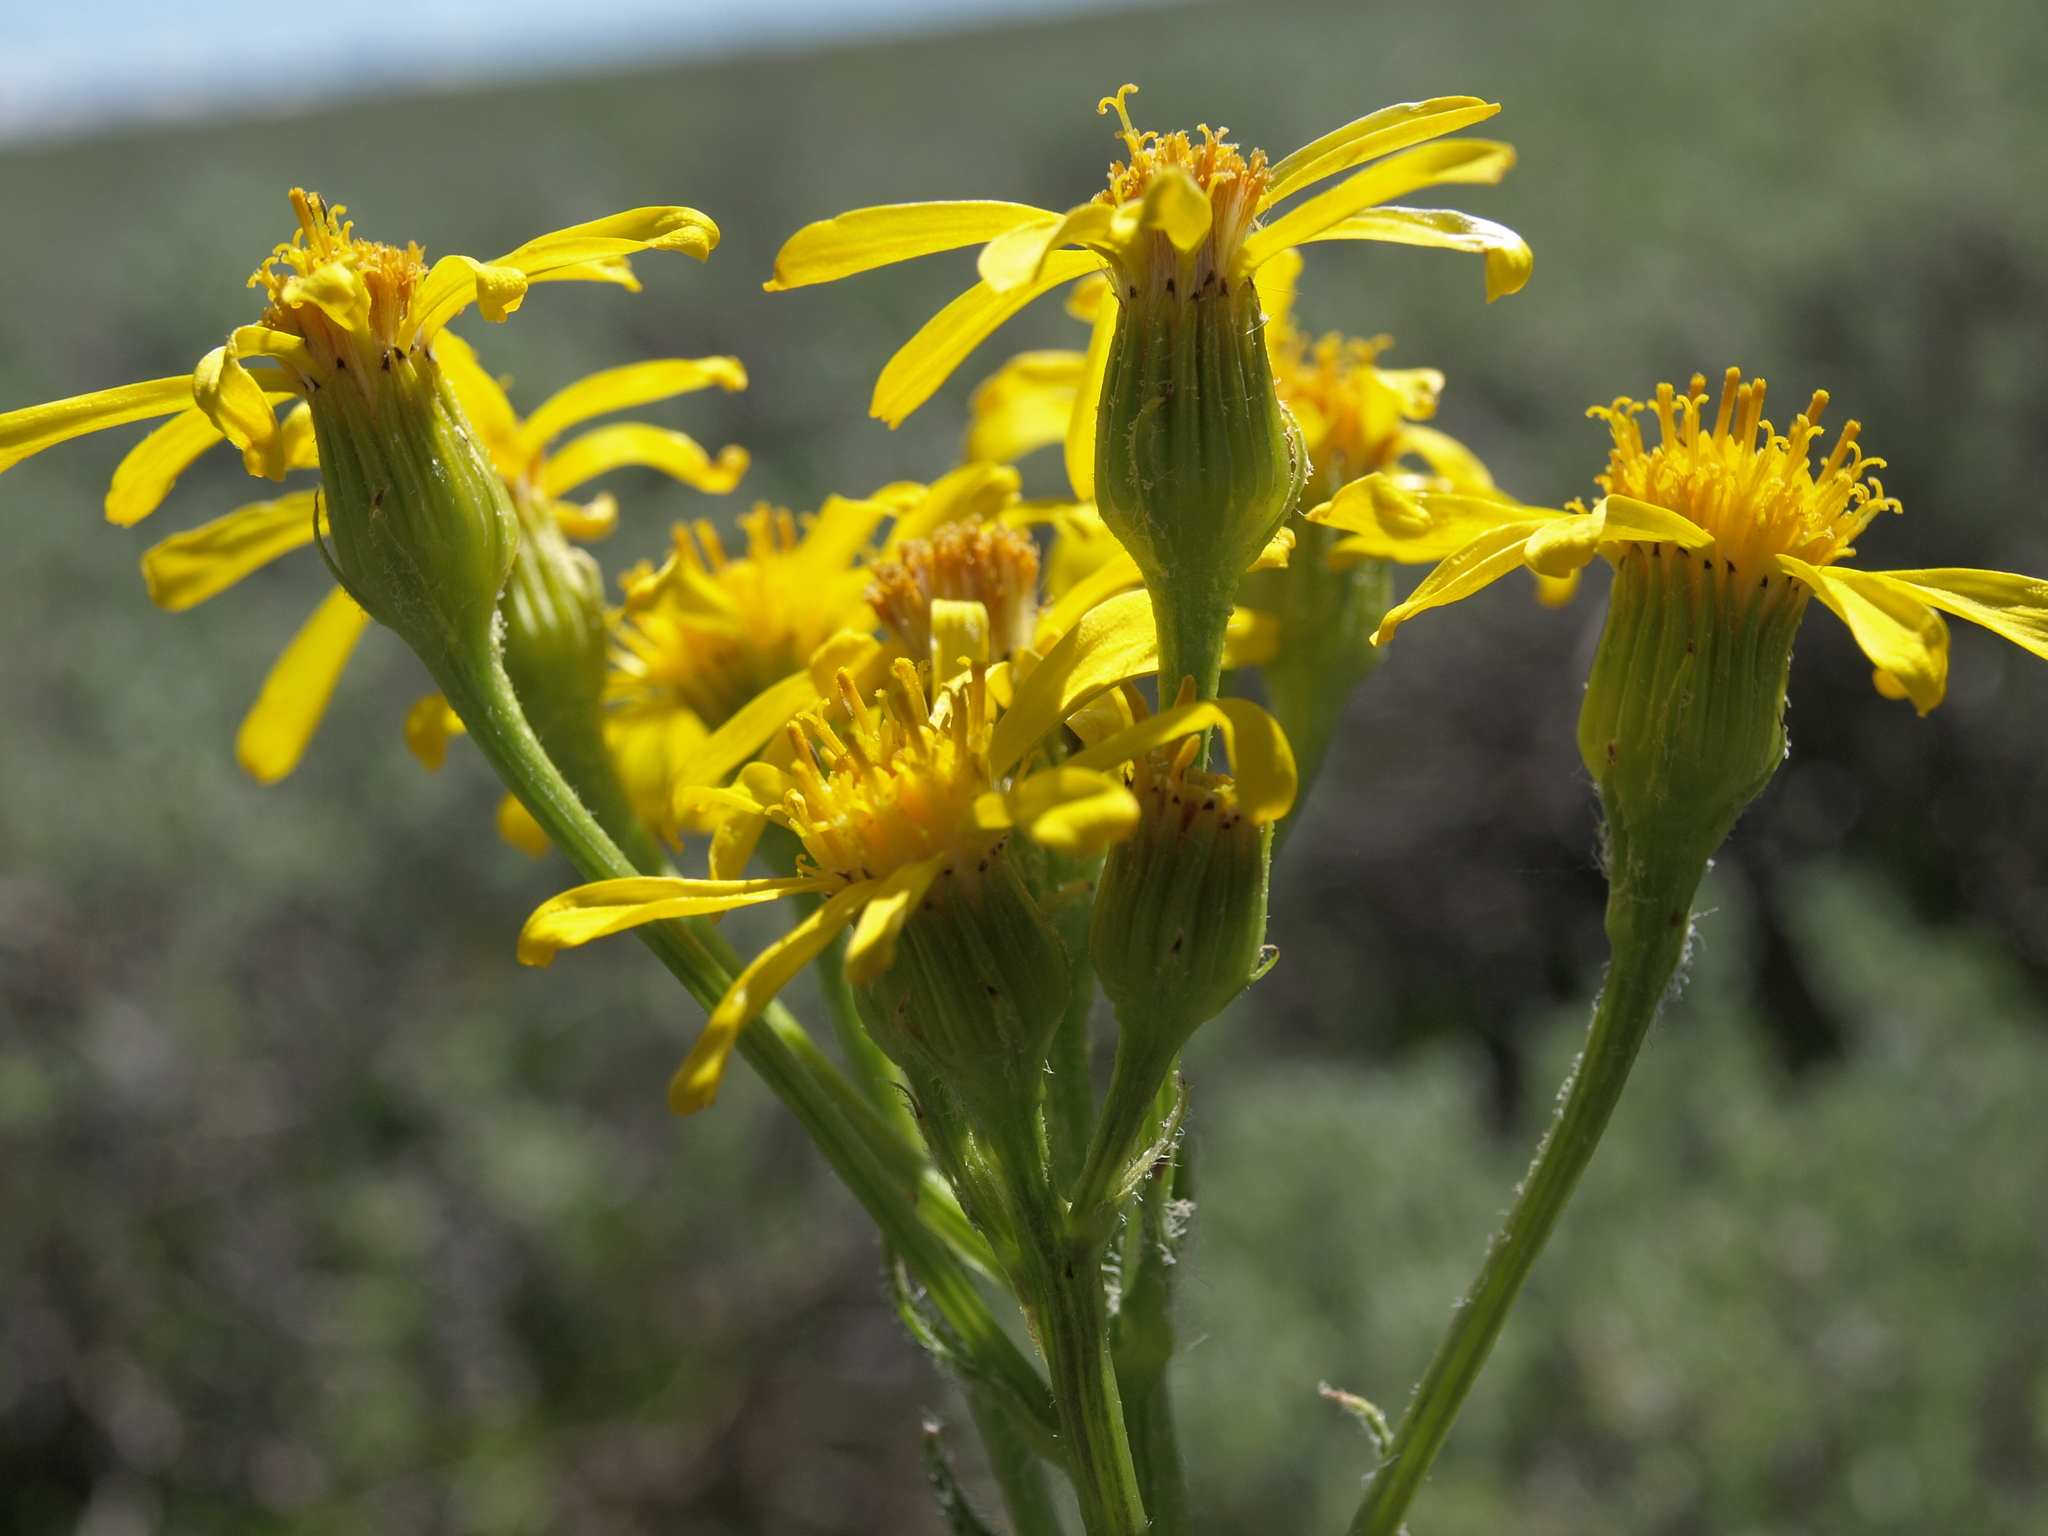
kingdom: Plantae
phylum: Tracheophyta
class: Magnoliopsida
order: Asterales
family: Asteraceae
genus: Senecio
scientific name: Senecio integerrimus
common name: Gaugeplant
